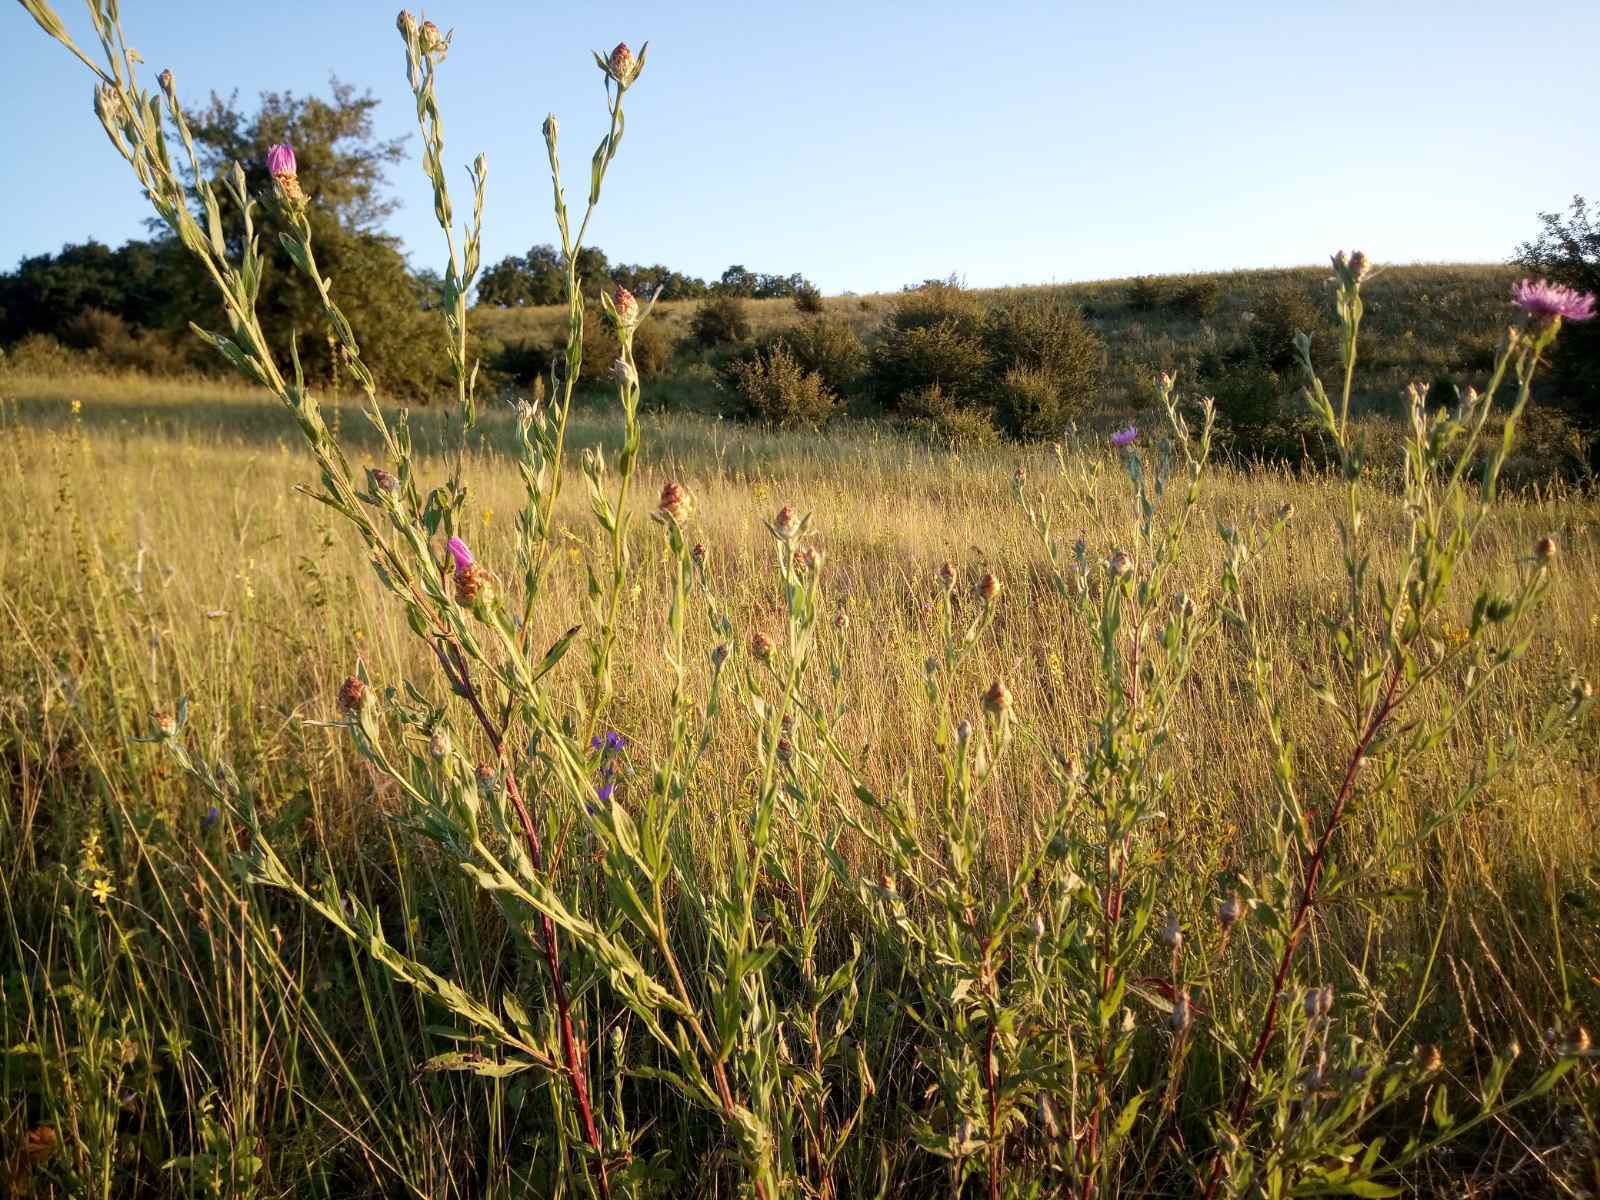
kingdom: Plantae
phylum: Tracheophyta
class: Magnoliopsida
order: Asterales
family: Asteraceae
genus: Centaurea
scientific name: Centaurea jacea
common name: Brown knapweed
